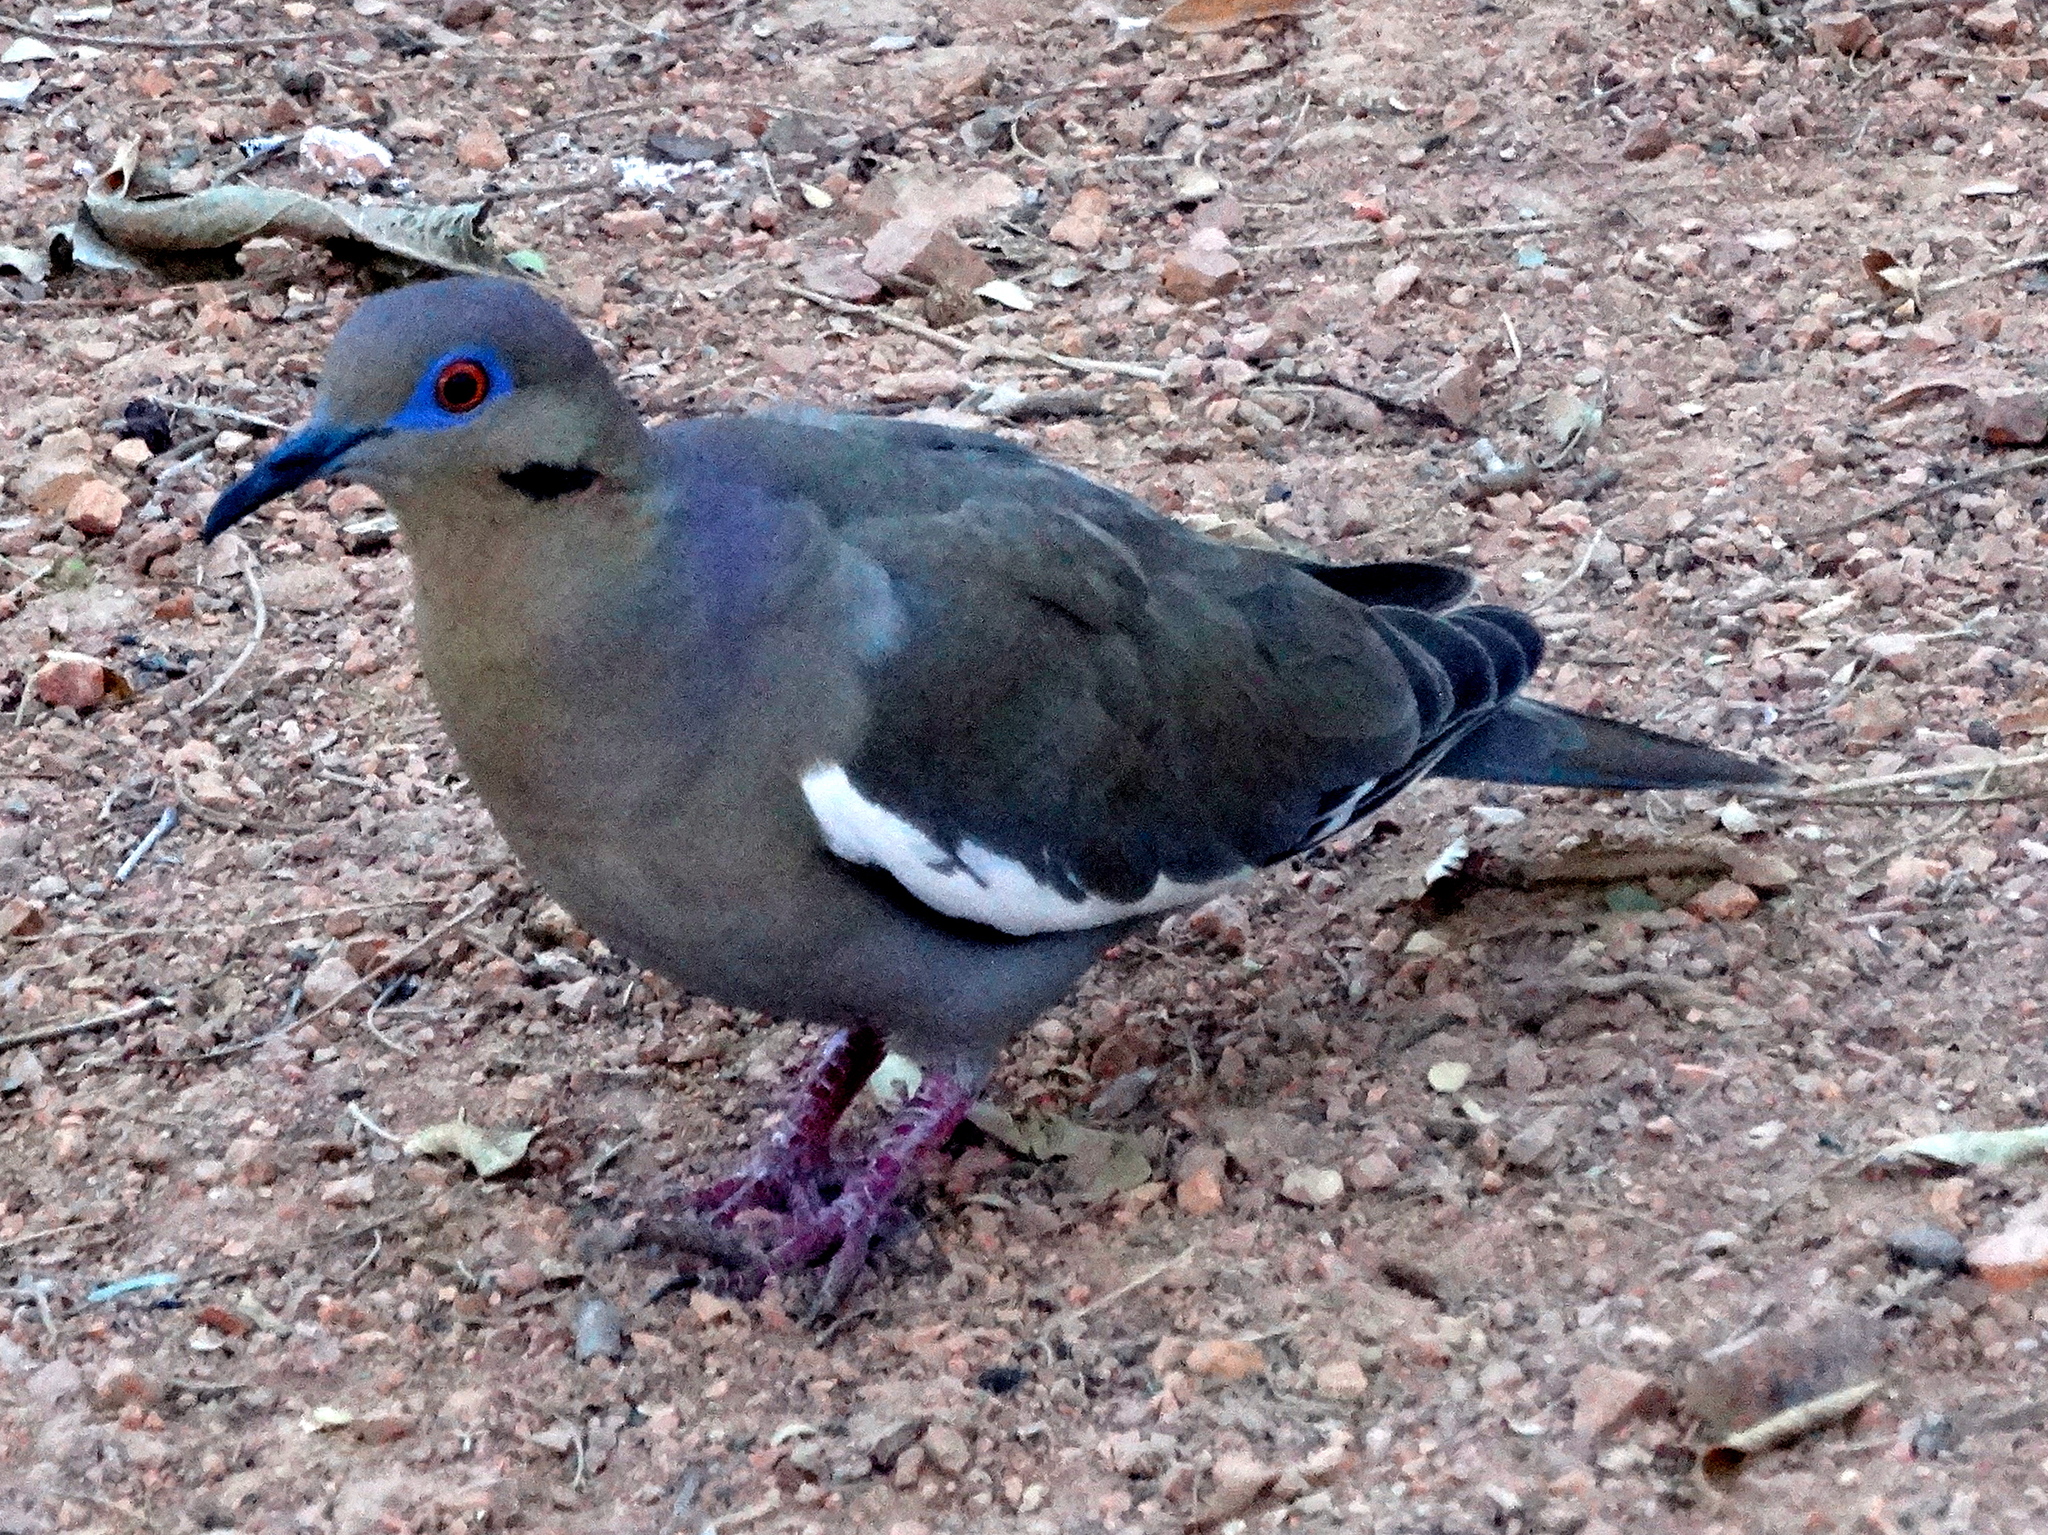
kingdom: Animalia
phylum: Chordata
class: Aves
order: Columbiformes
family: Columbidae
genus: Zenaida
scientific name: Zenaida asiatica
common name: White-winged dove
